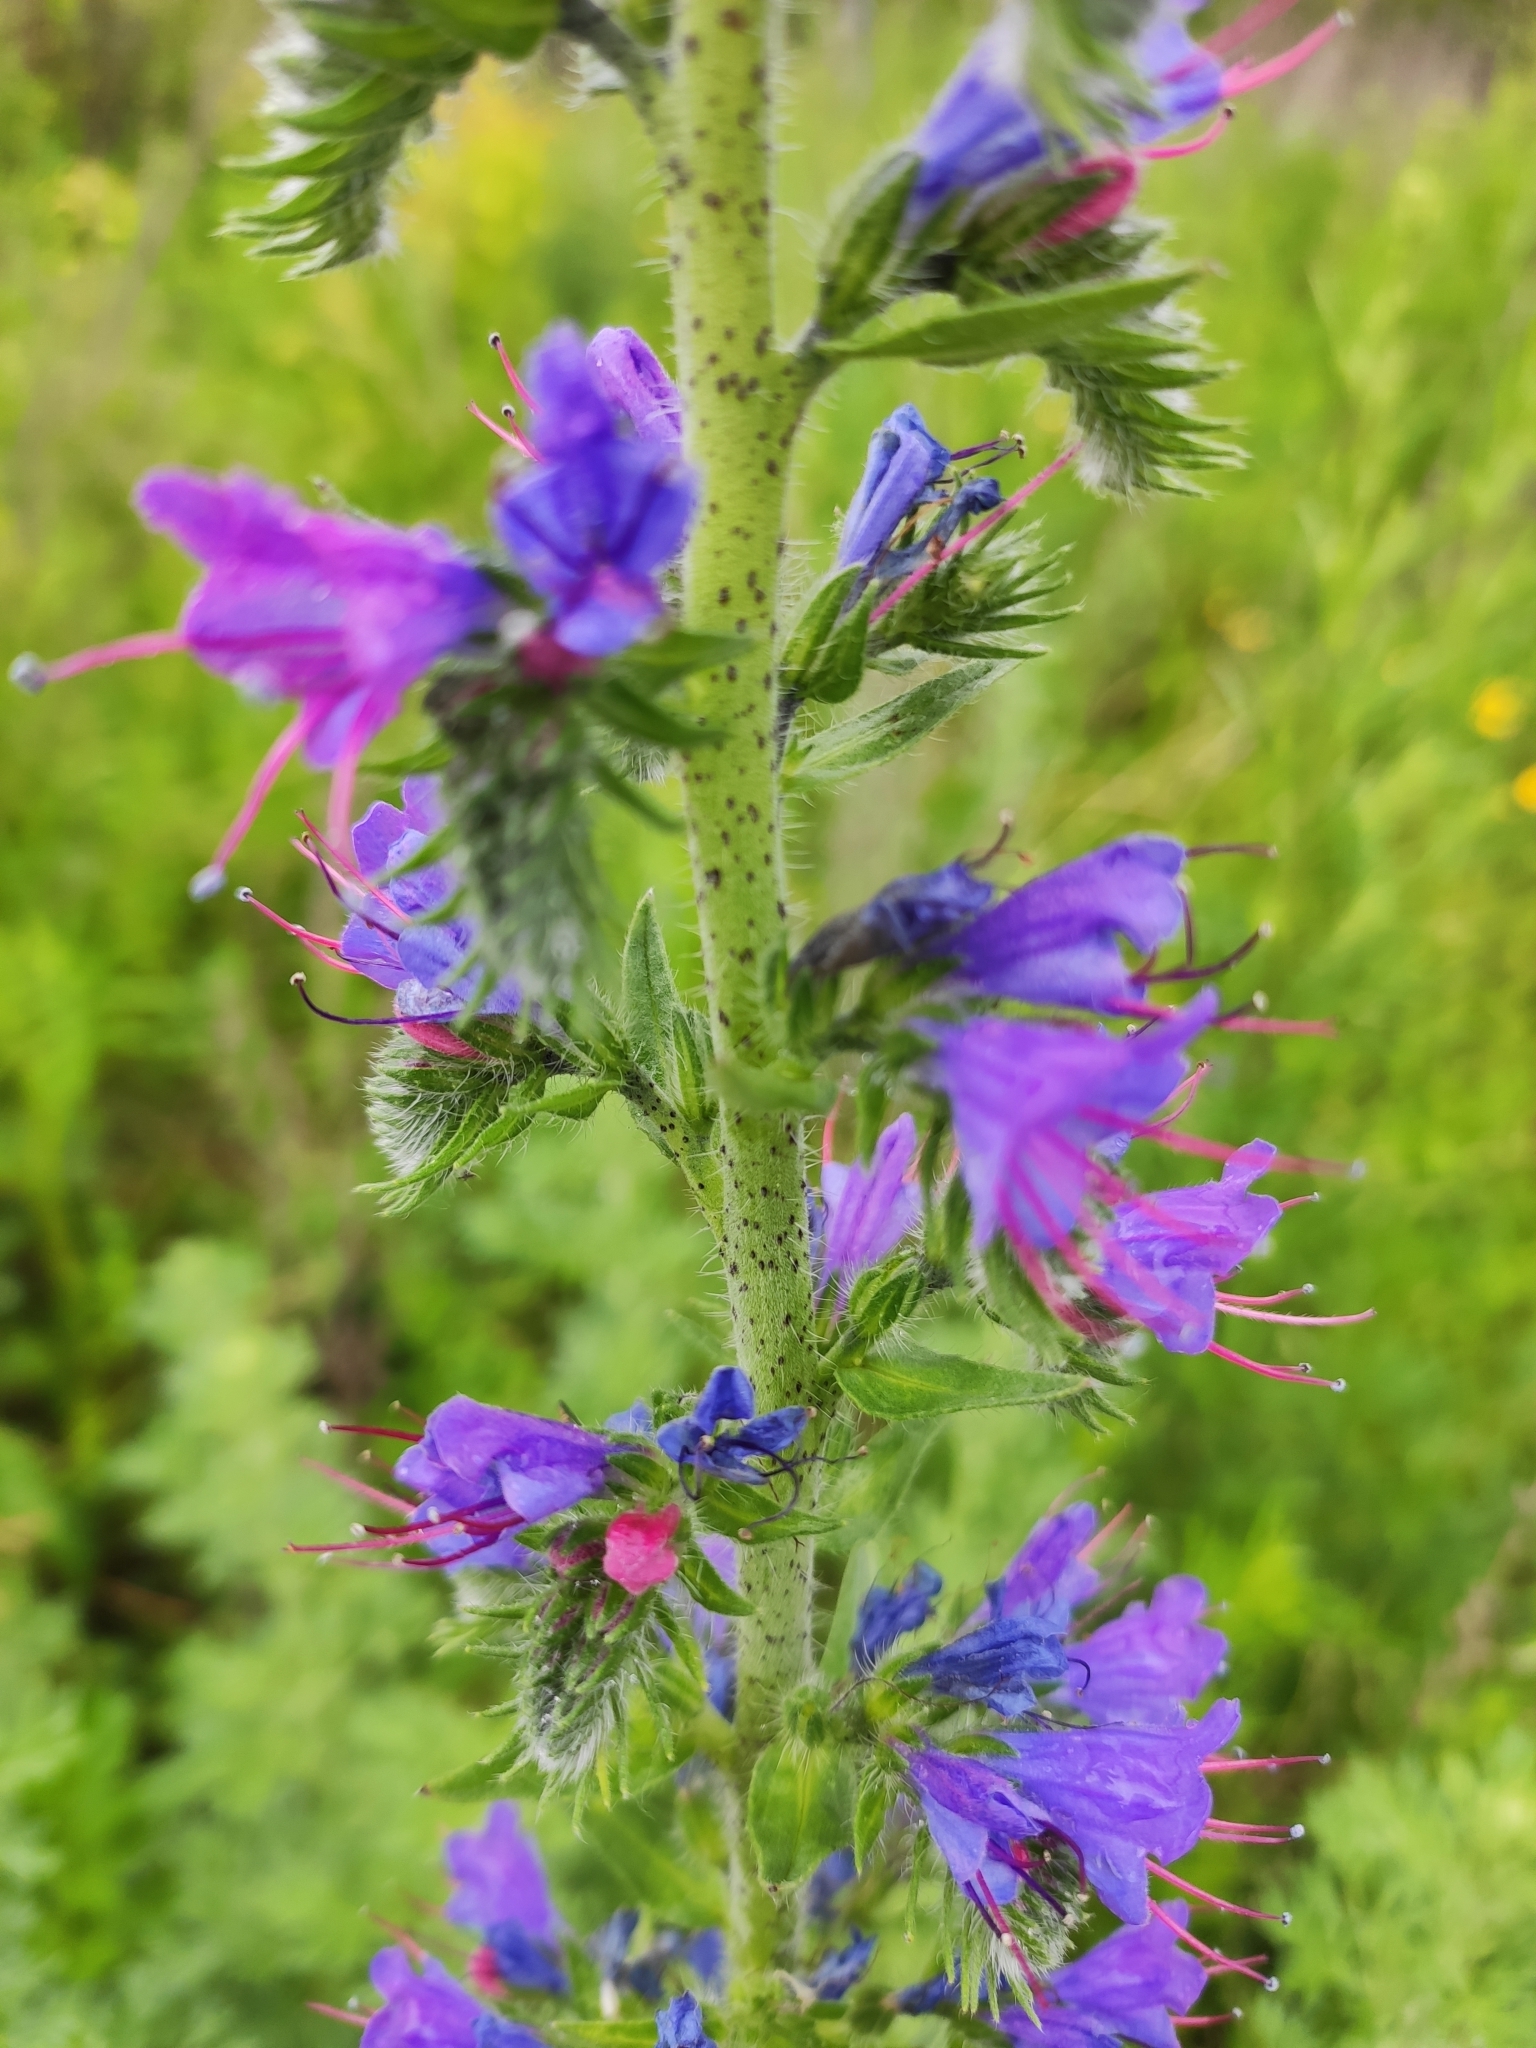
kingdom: Plantae
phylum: Tracheophyta
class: Magnoliopsida
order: Boraginales
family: Boraginaceae
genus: Echium
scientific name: Echium vulgare
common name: Common viper's bugloss
